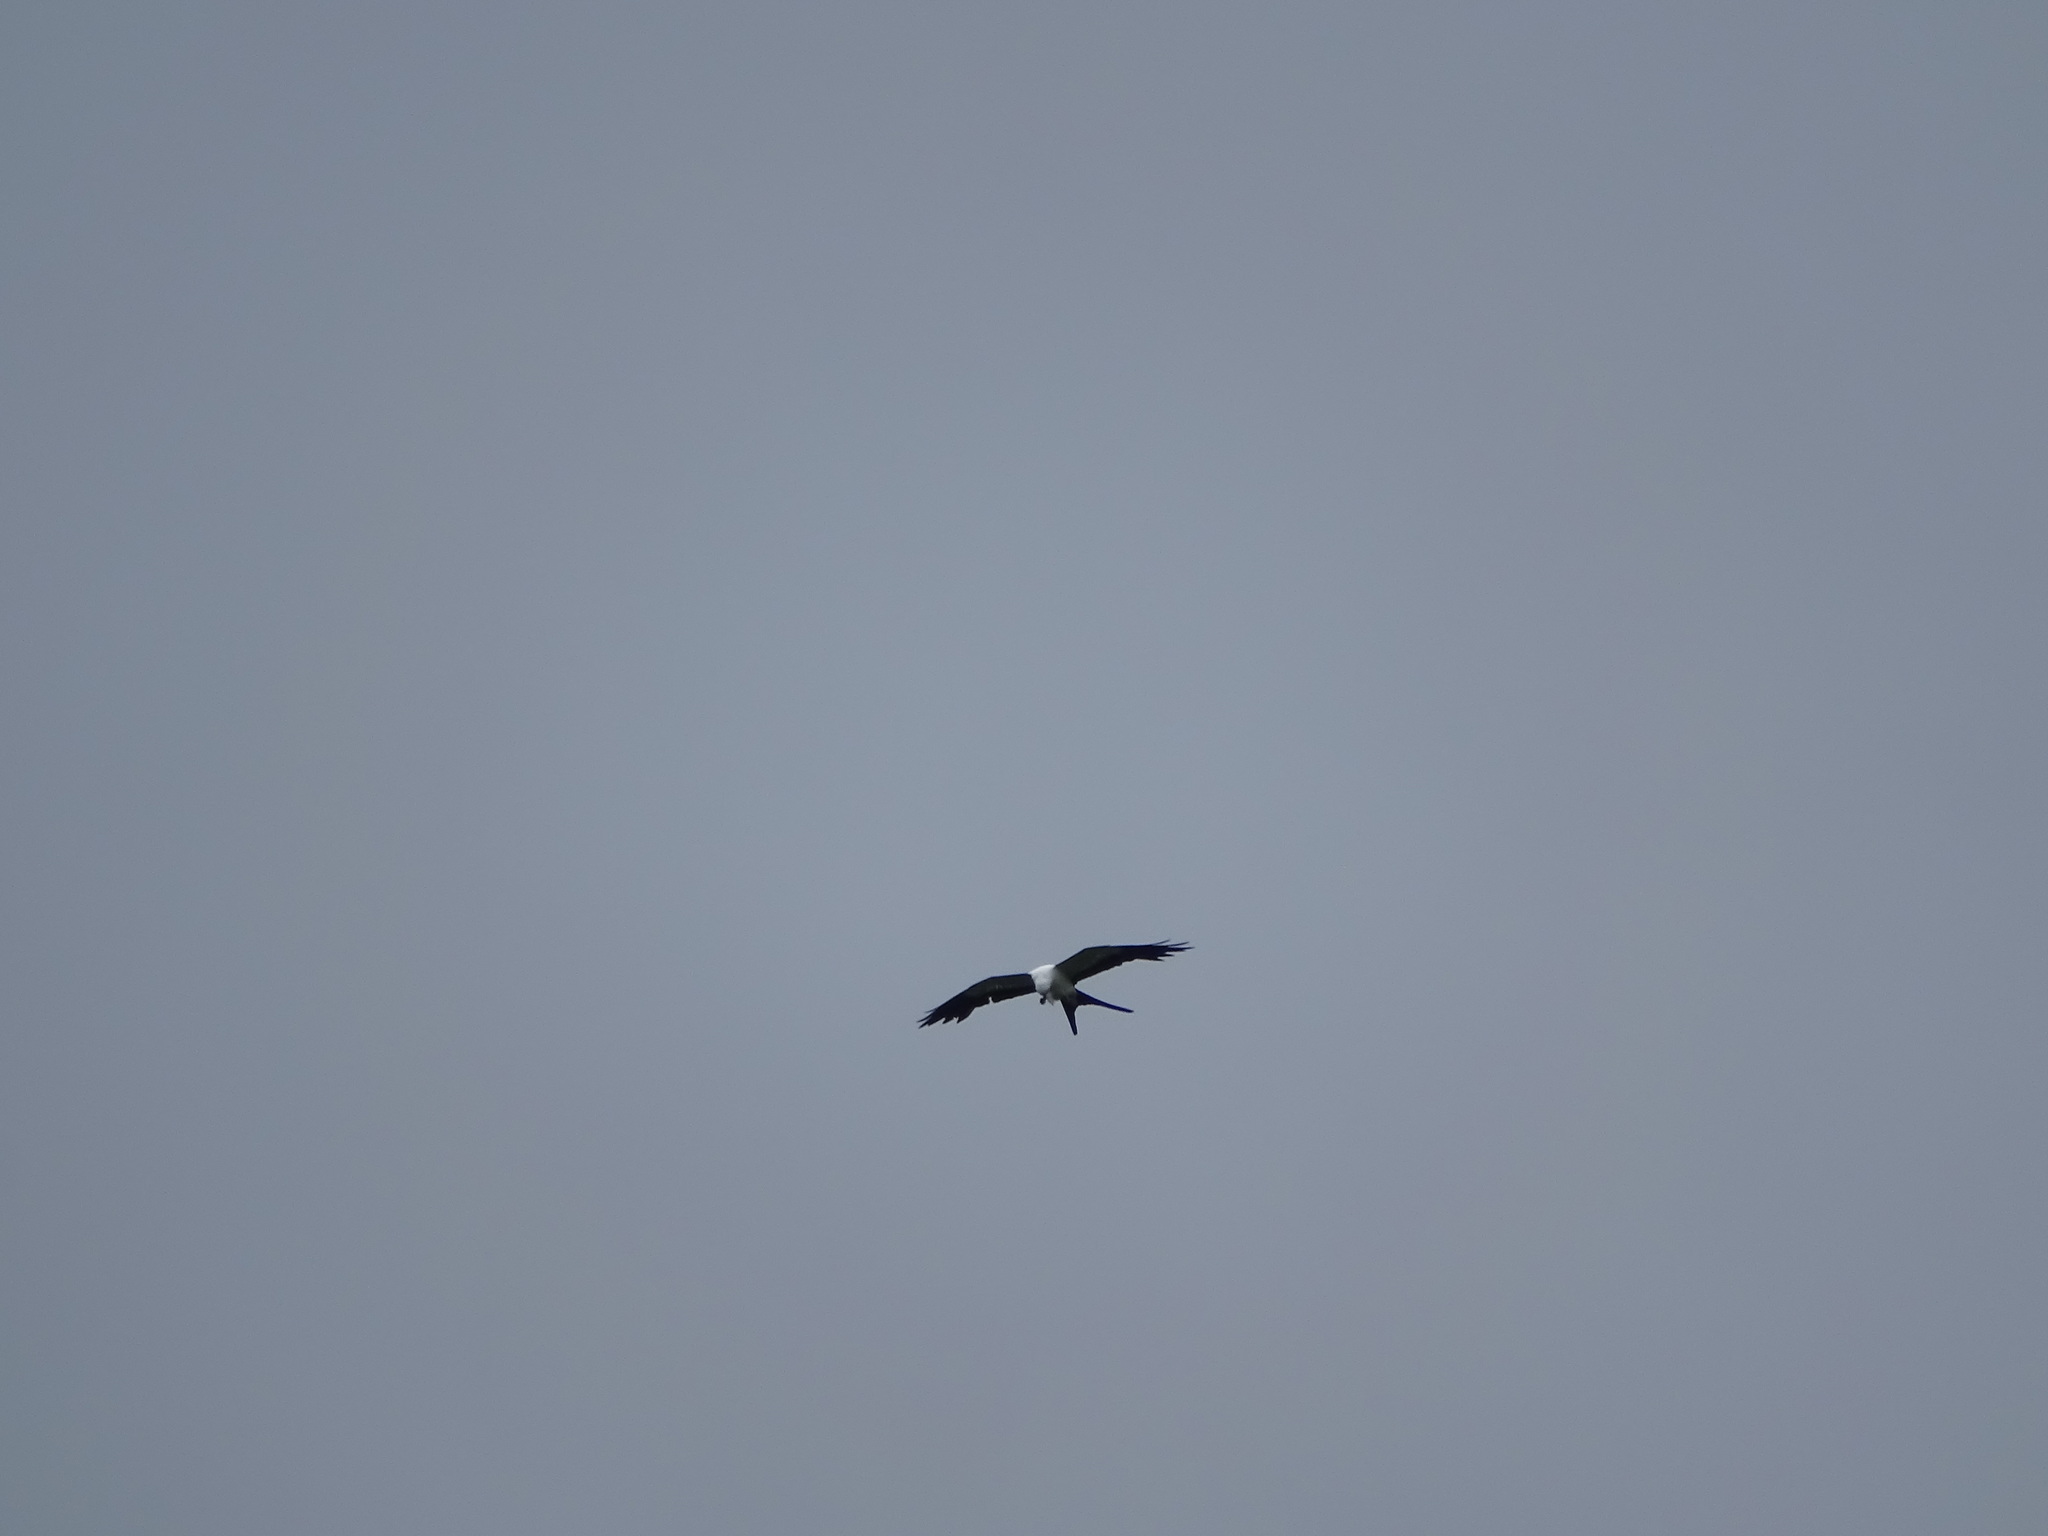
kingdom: Animalia
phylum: Chordata
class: Aves
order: Accipitriformes
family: Accipitridae
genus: Elanoides
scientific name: Elanoides forficatus
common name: Swallow-tailed kite
